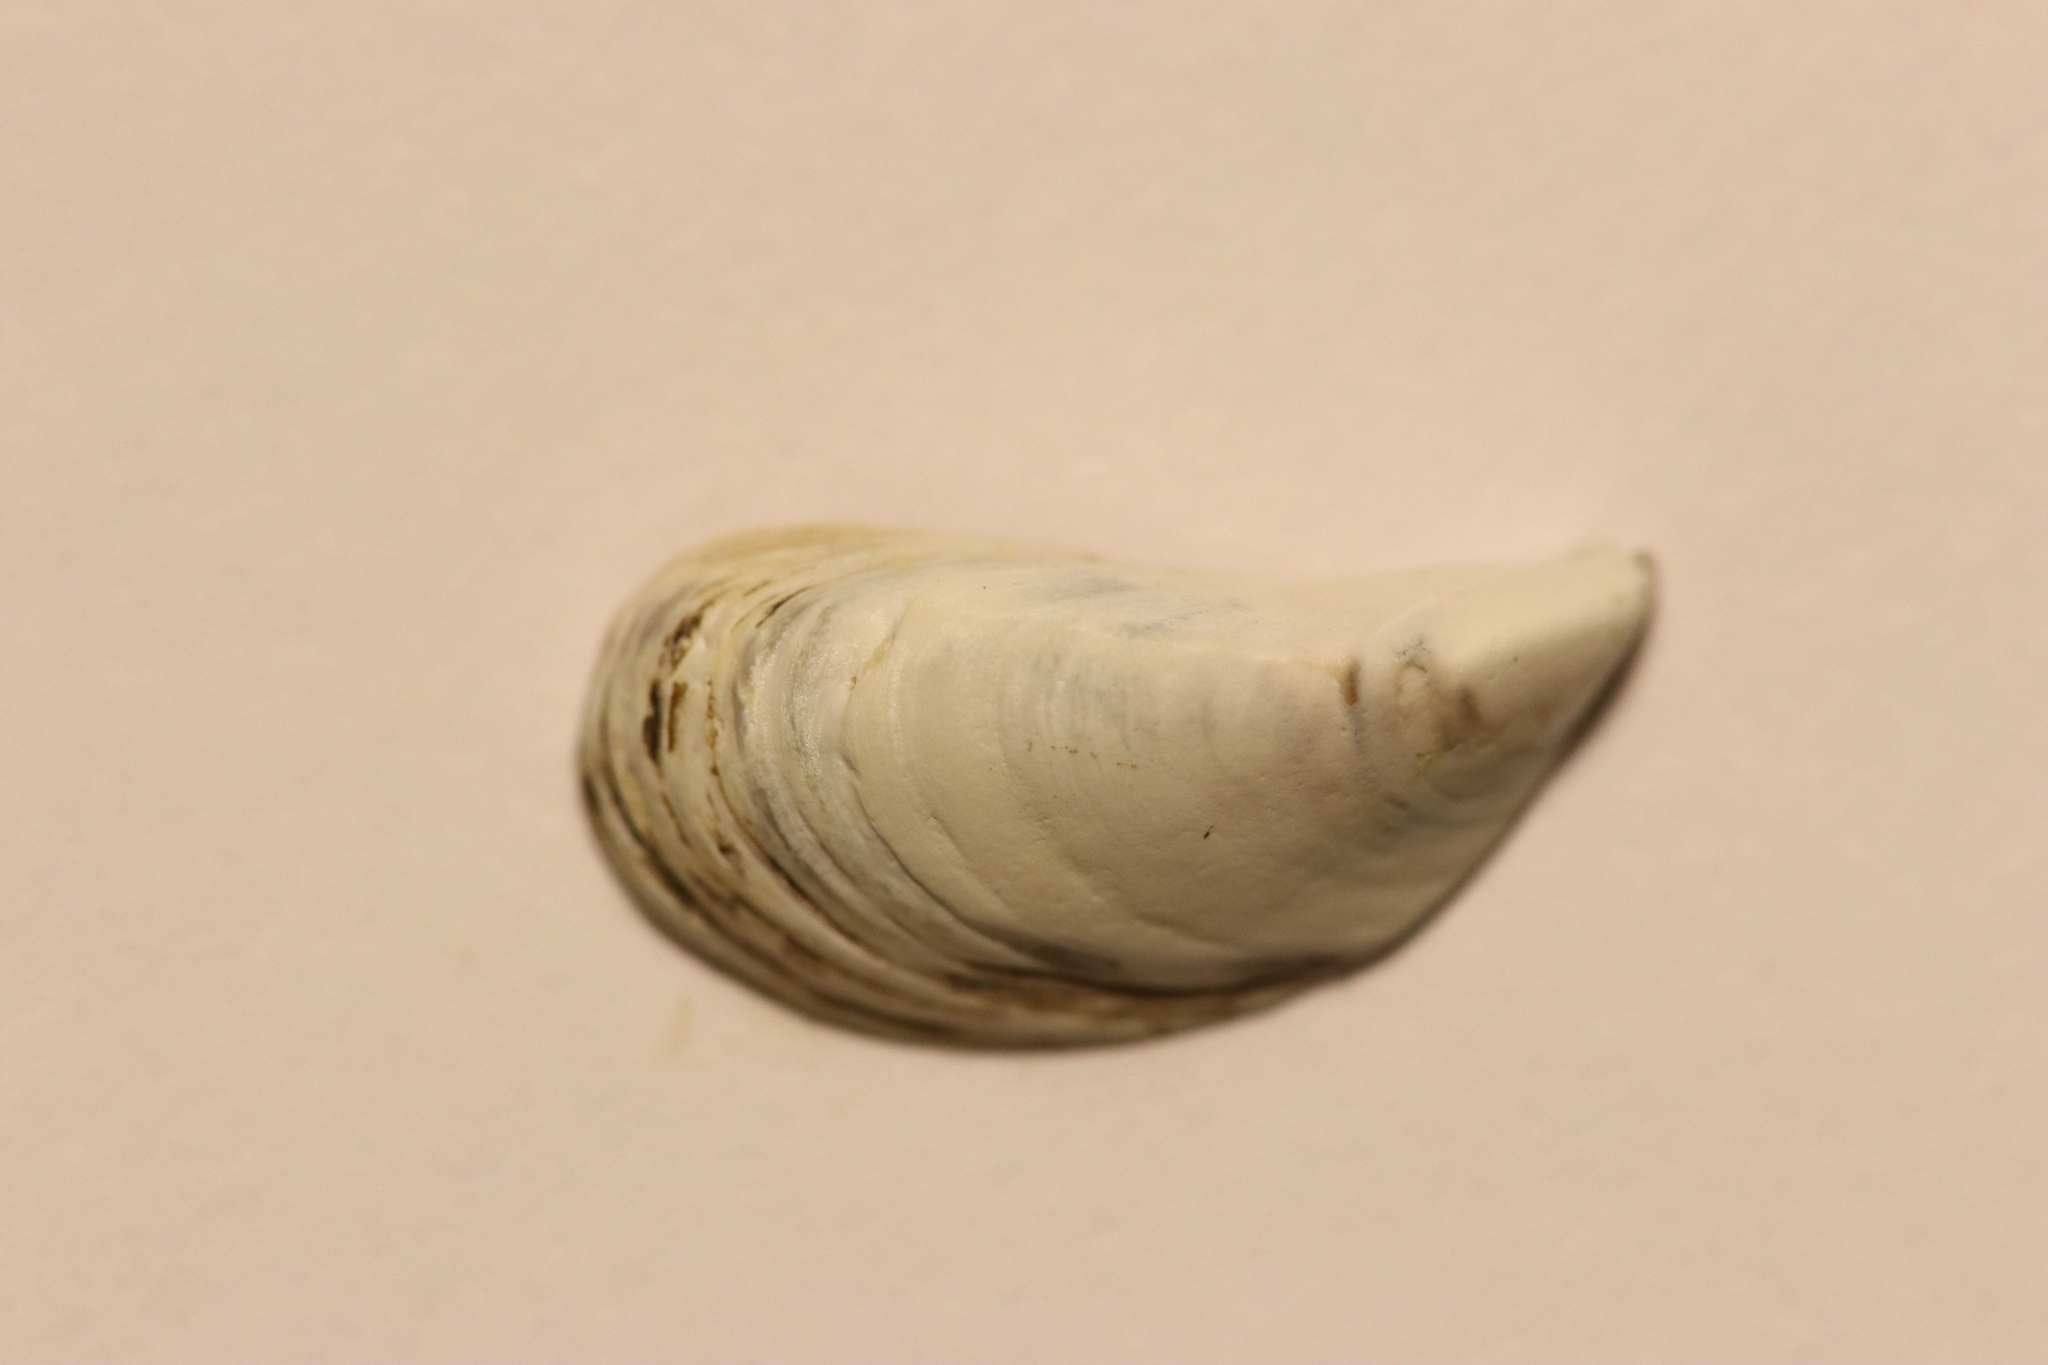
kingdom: Animalia
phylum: Mollusca
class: Bivalvia
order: Myida
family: Dreissenidae
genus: Dreissena
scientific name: Dreissena polymorpha
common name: Zebra mussel
